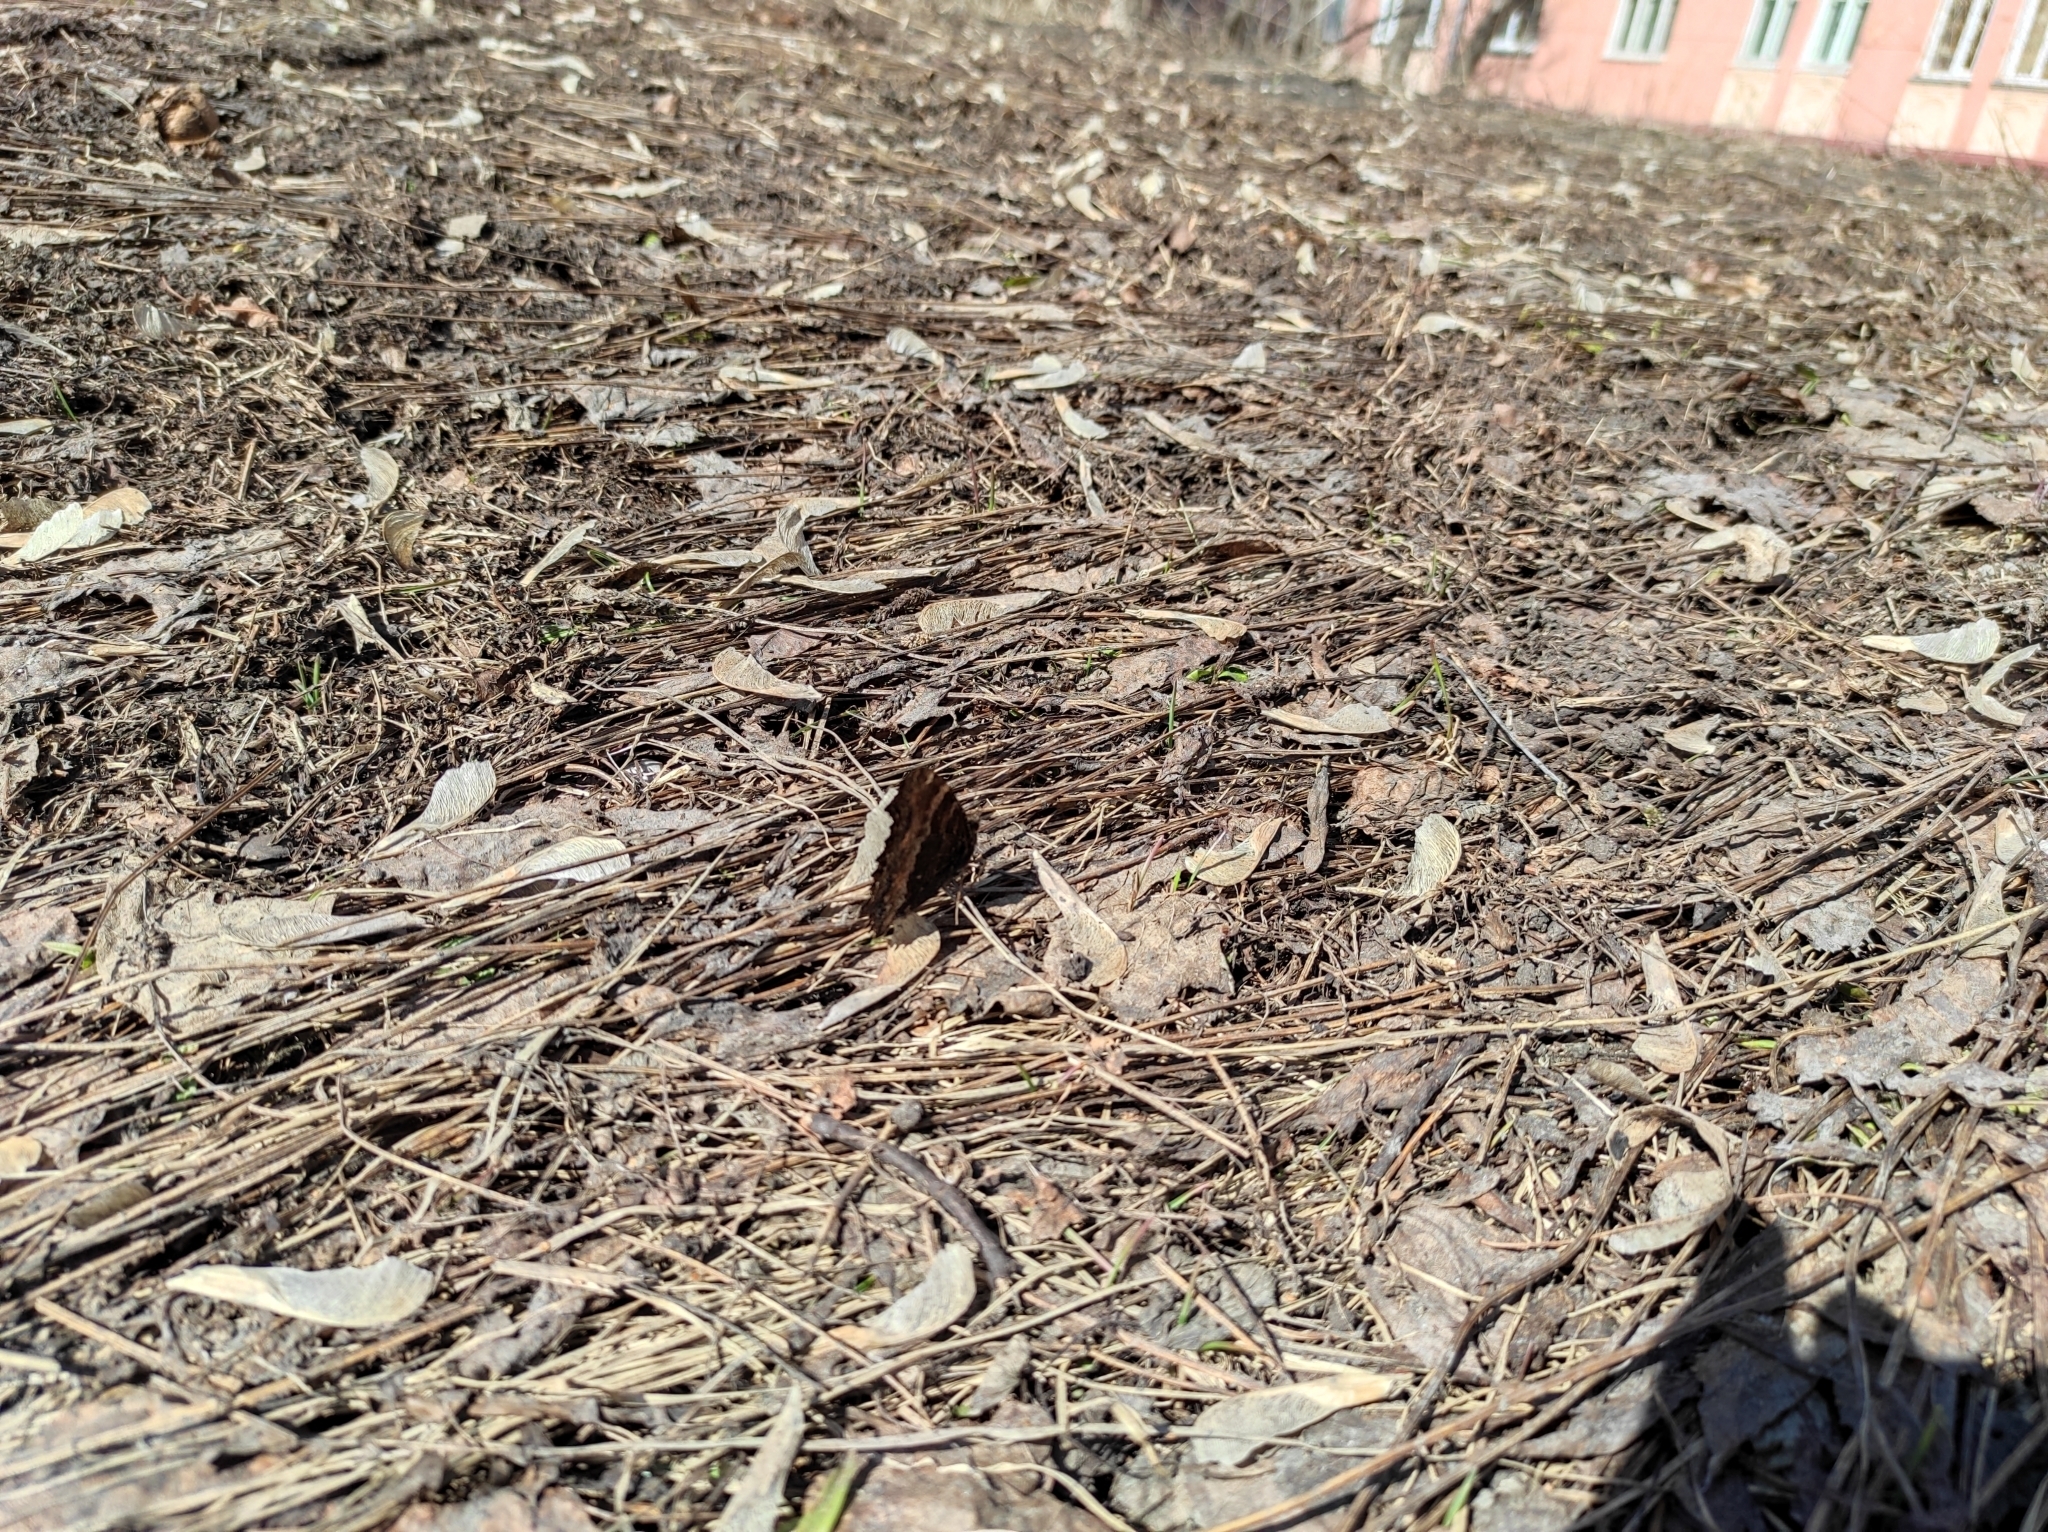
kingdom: Animalia
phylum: Arthropoda
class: Insecta
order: Lepidoptera
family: Nymphalidae
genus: Nymphalis
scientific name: Nymphalis xanthomelas
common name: Scarce tortoiseshell
